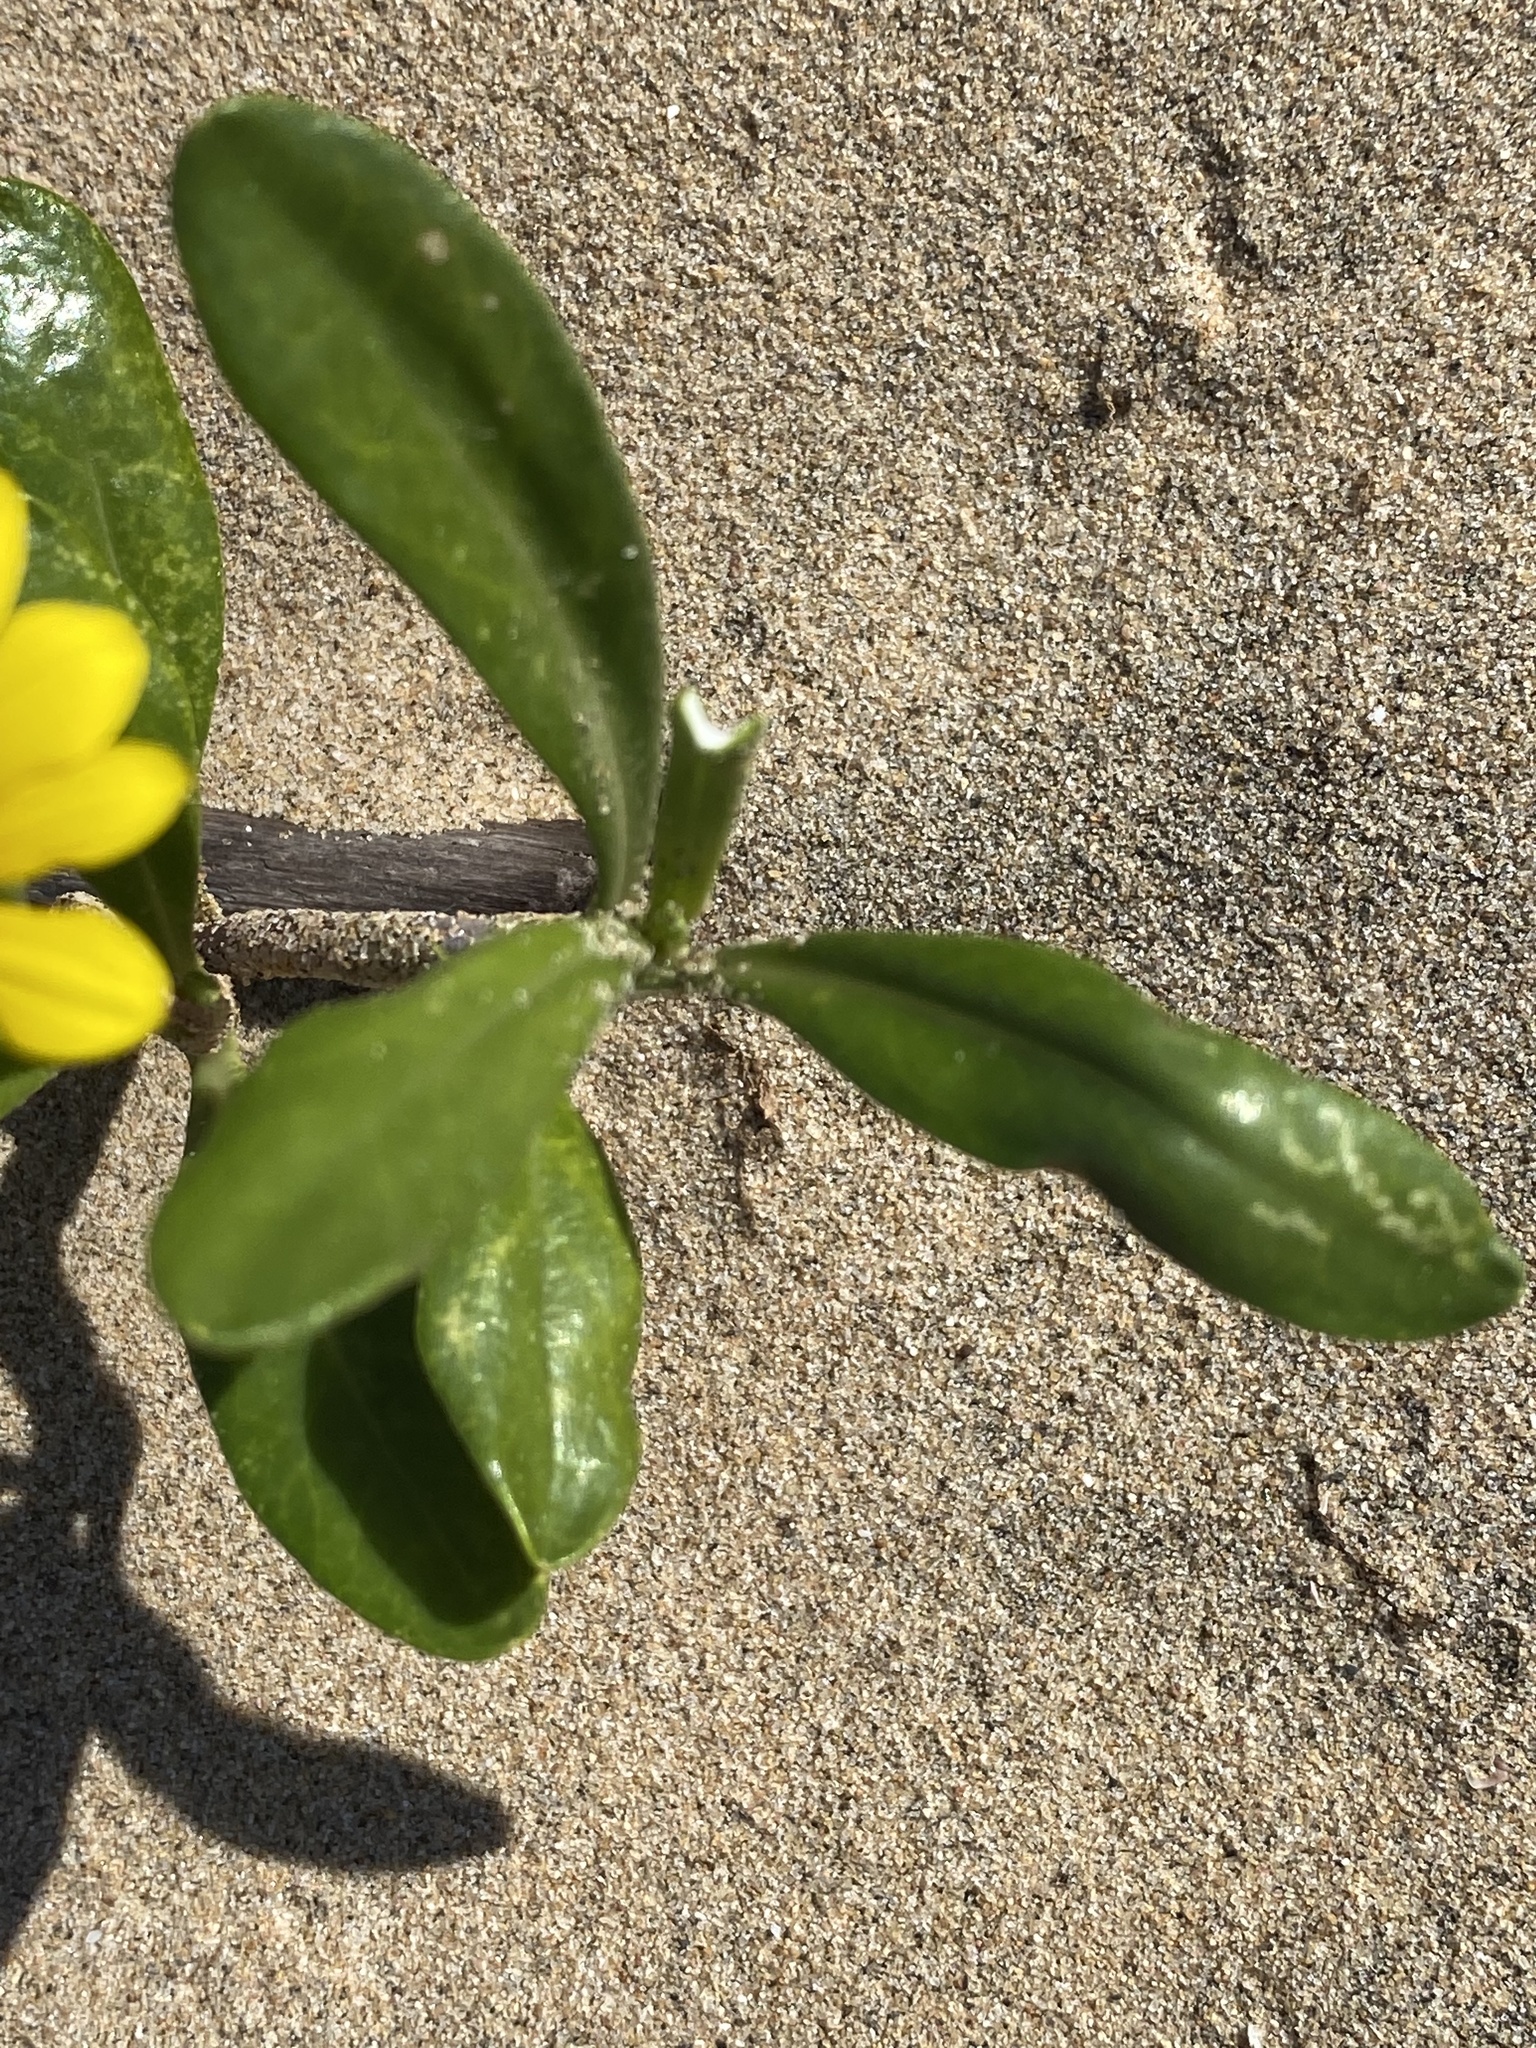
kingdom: Plantae
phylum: Tracheophyta
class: Magnoliopsida
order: Asterales
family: Asteraceae
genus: Gazania
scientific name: Gazania rigens
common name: Treasureflower
